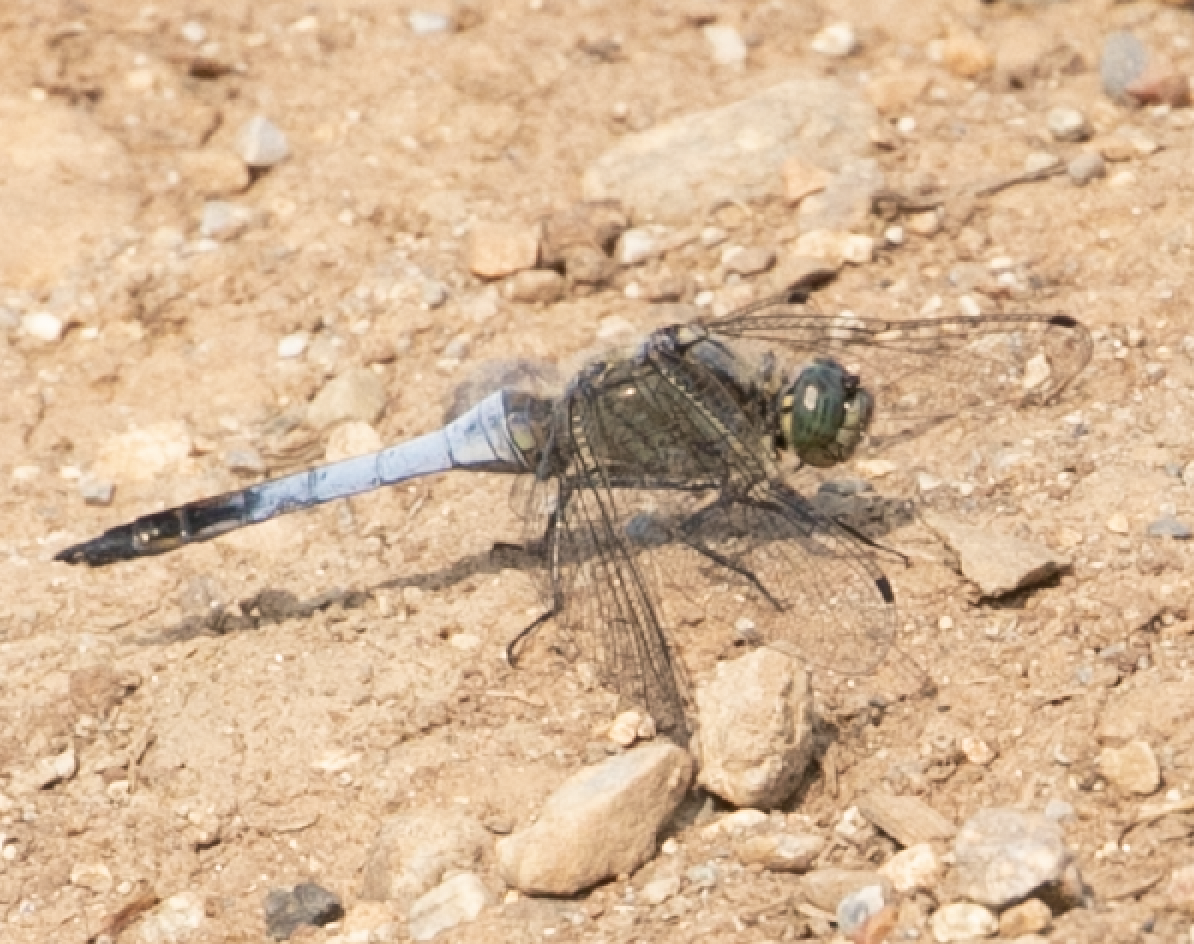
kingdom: Animalia
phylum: Arthropoda
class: Insecta
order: Odonata
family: Libellulidae
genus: Orthetrum
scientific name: Orthetrum cancellatum
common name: Black-tailed skimmer
